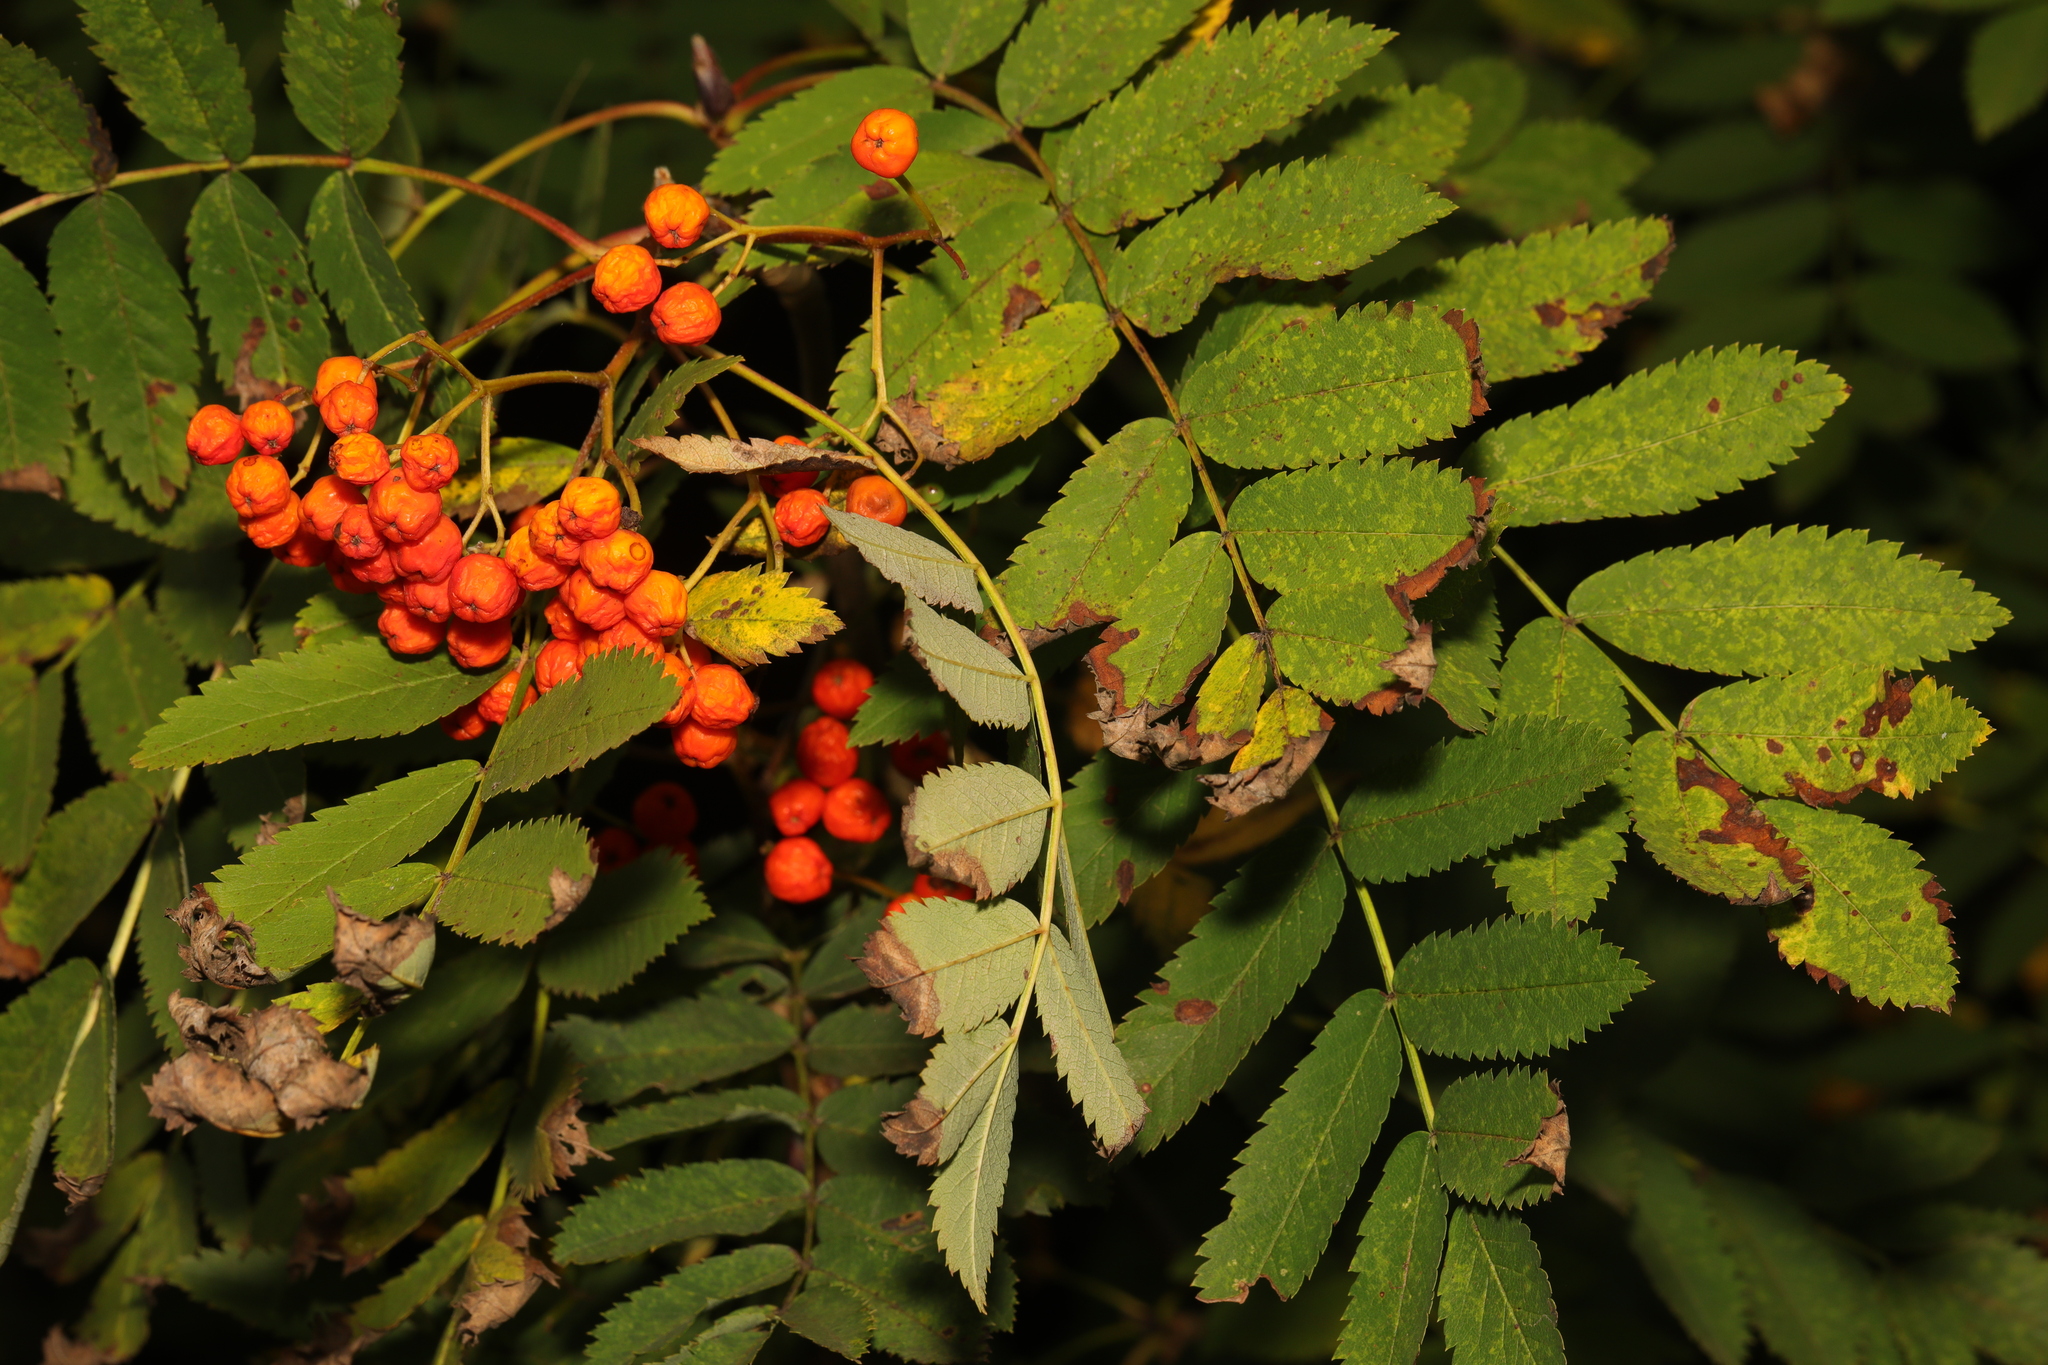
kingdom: Plantae
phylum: Tracheophyta
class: Magnoliopsida
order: Rosales
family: Rosaceae
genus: Sorbus
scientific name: Sorbus aucuparia
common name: Rowan
